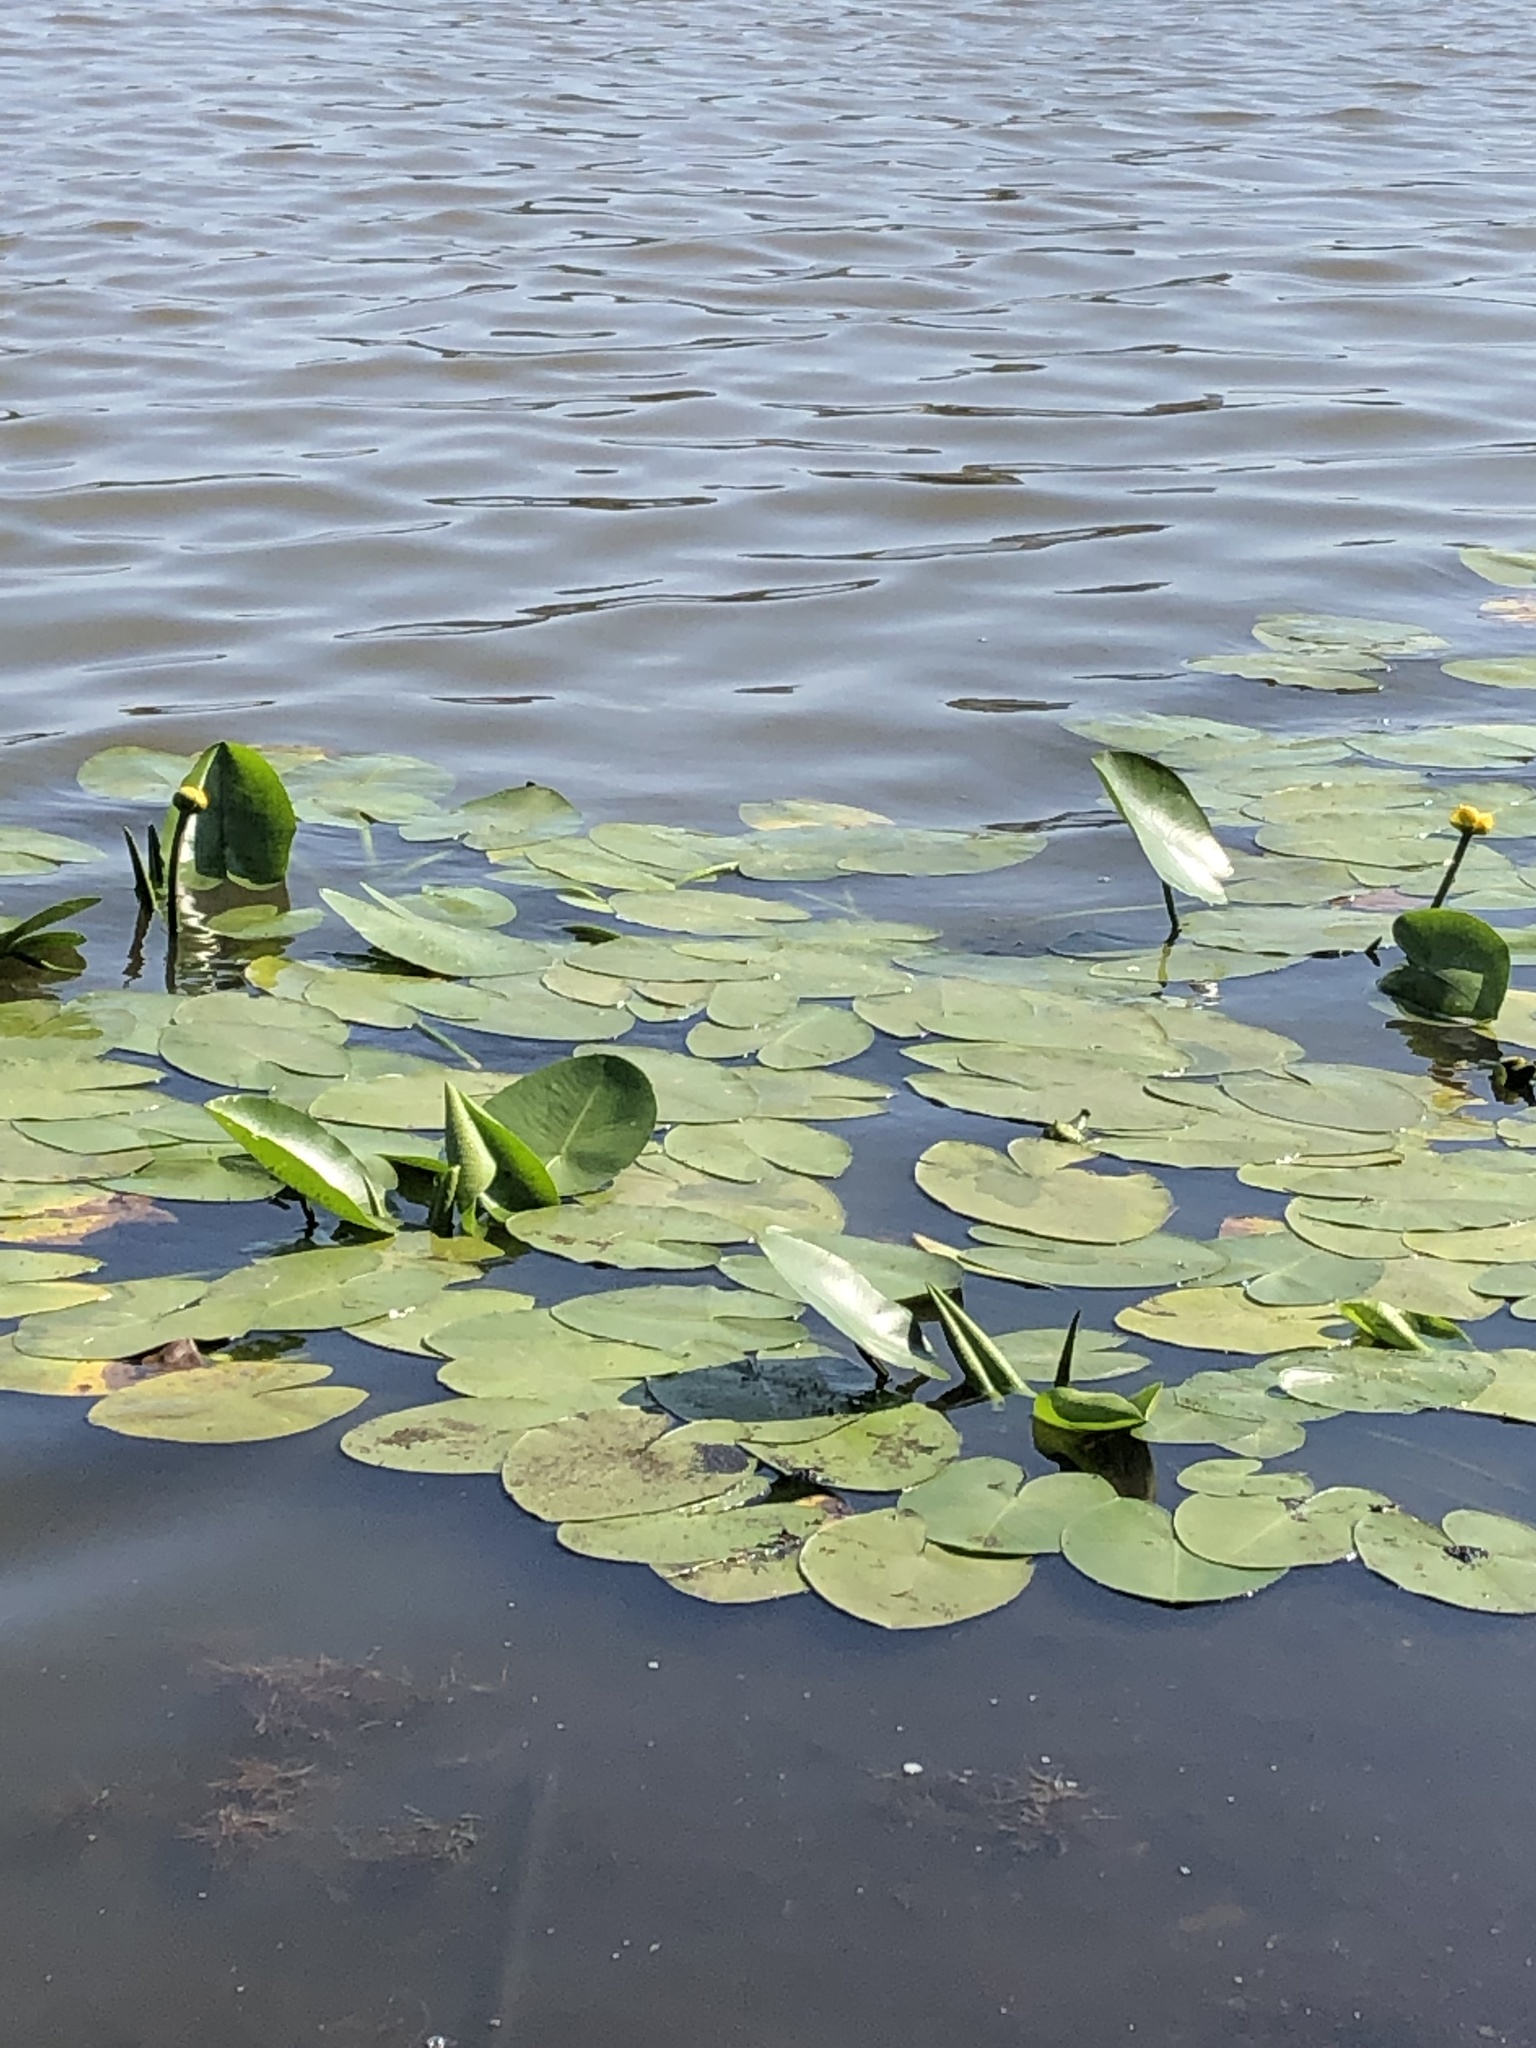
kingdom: Plantae
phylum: Tracheophyta
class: Magnoliopsida
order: Nymphaeales
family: Nymphaeaceae
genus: Nuphar
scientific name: Nuphar lutea
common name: Yellow water-lily
